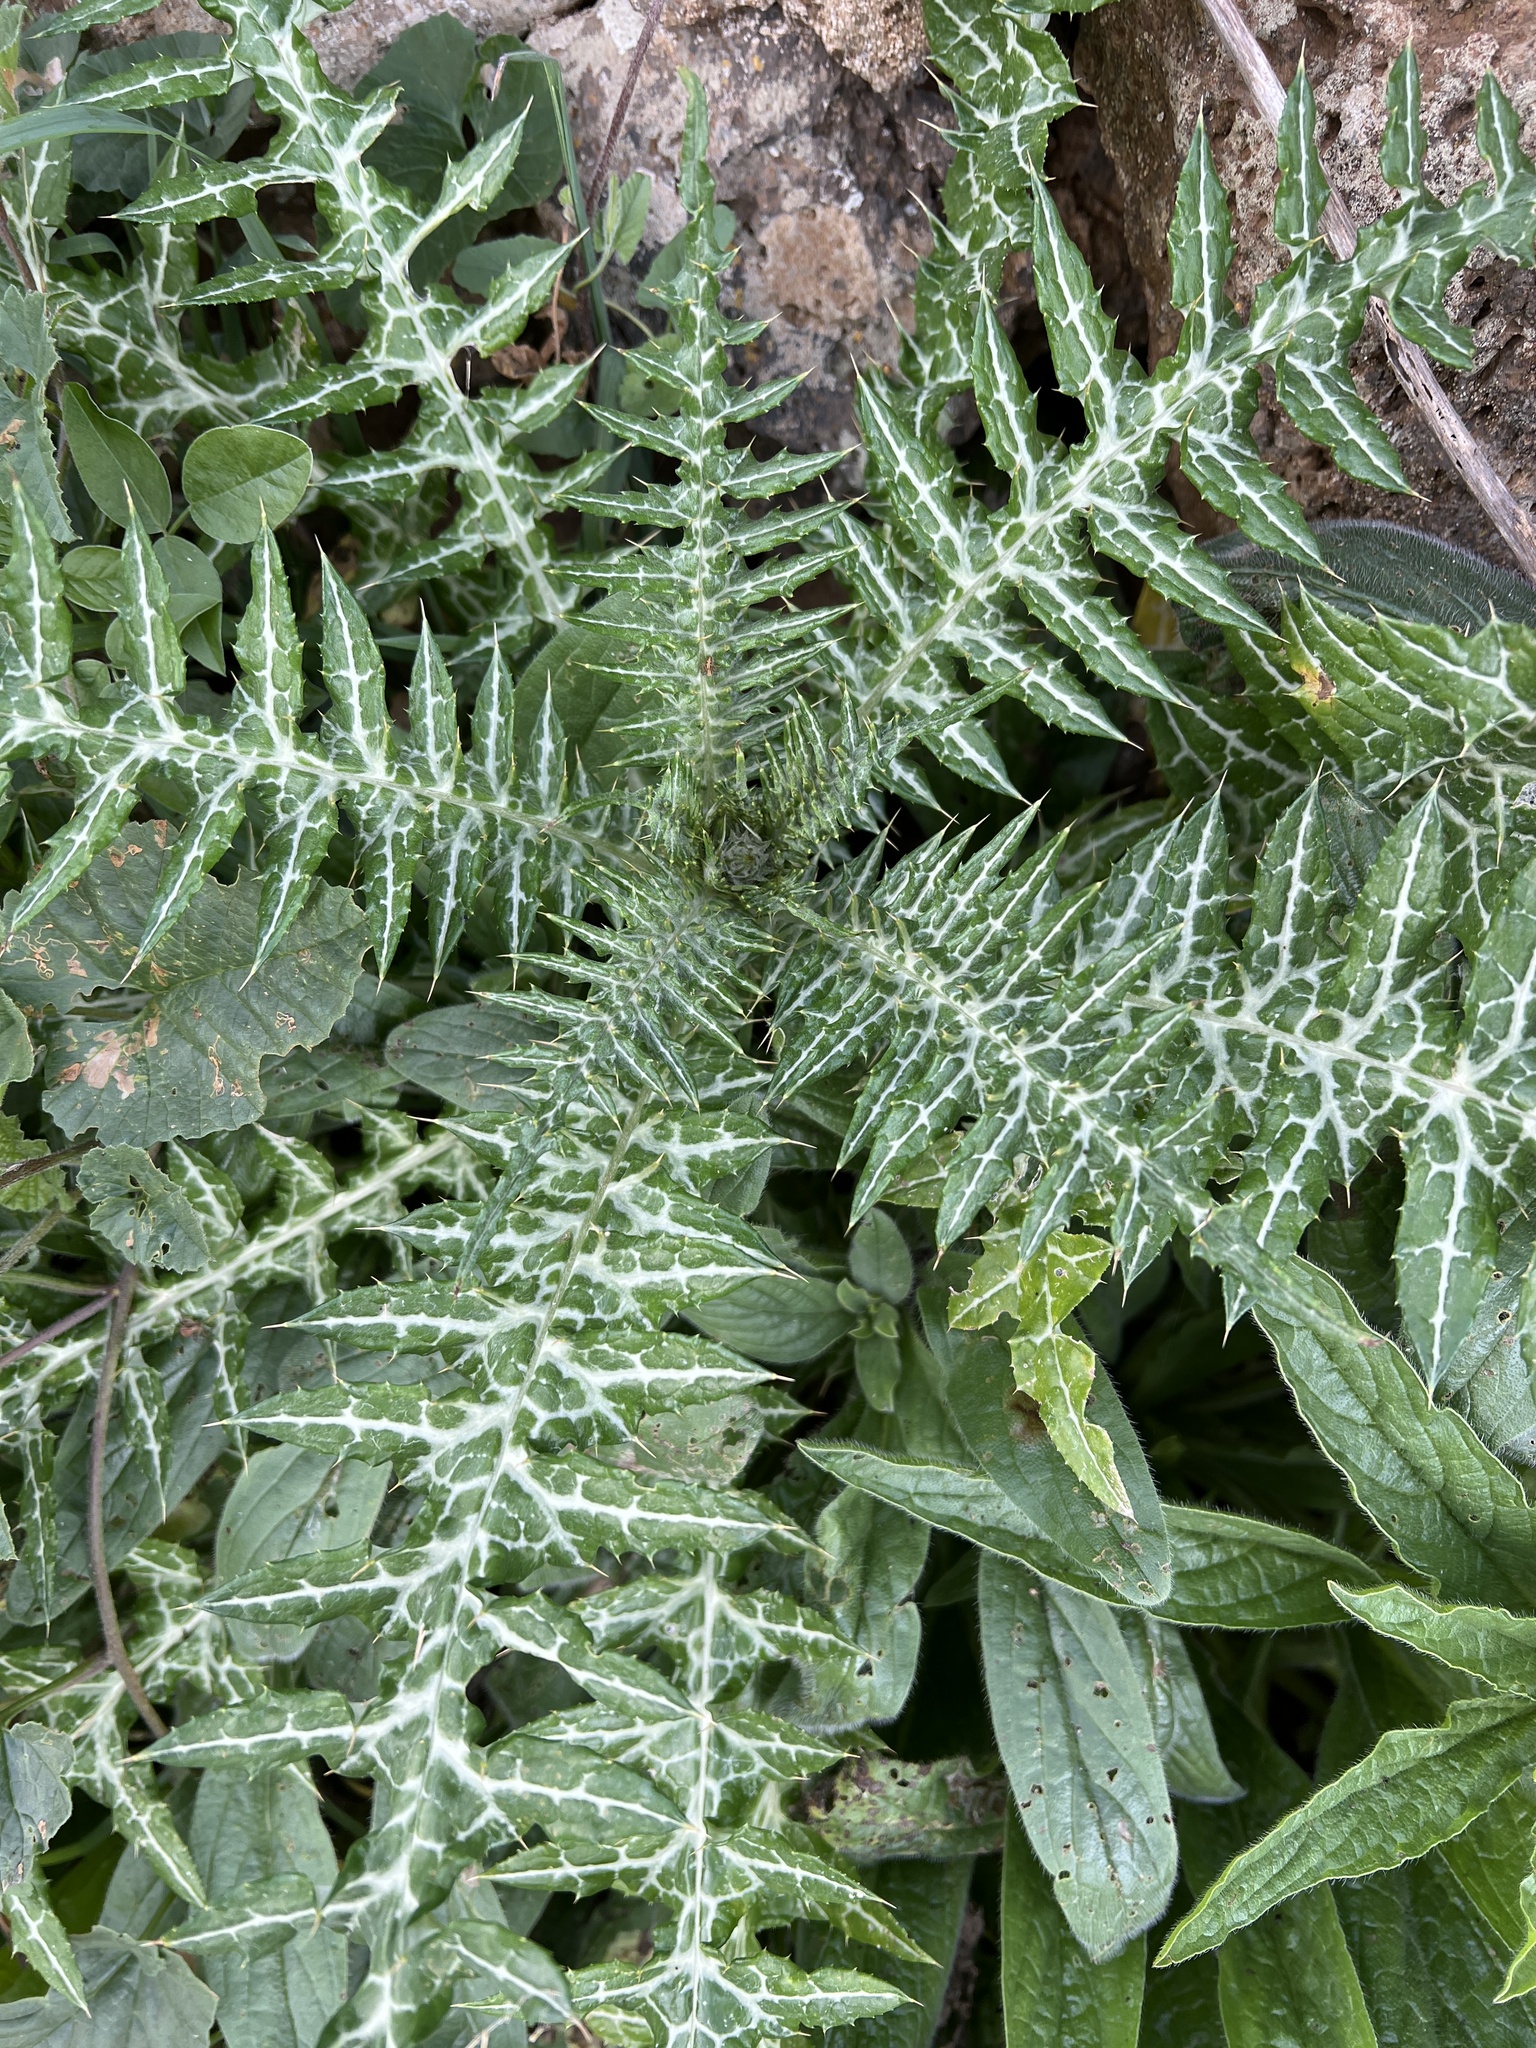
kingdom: Plantae
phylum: Tracheophyta
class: Magnoliopsida
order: Asterales
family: Asteraceae
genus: Galactites
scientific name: Galactites tomentosa
